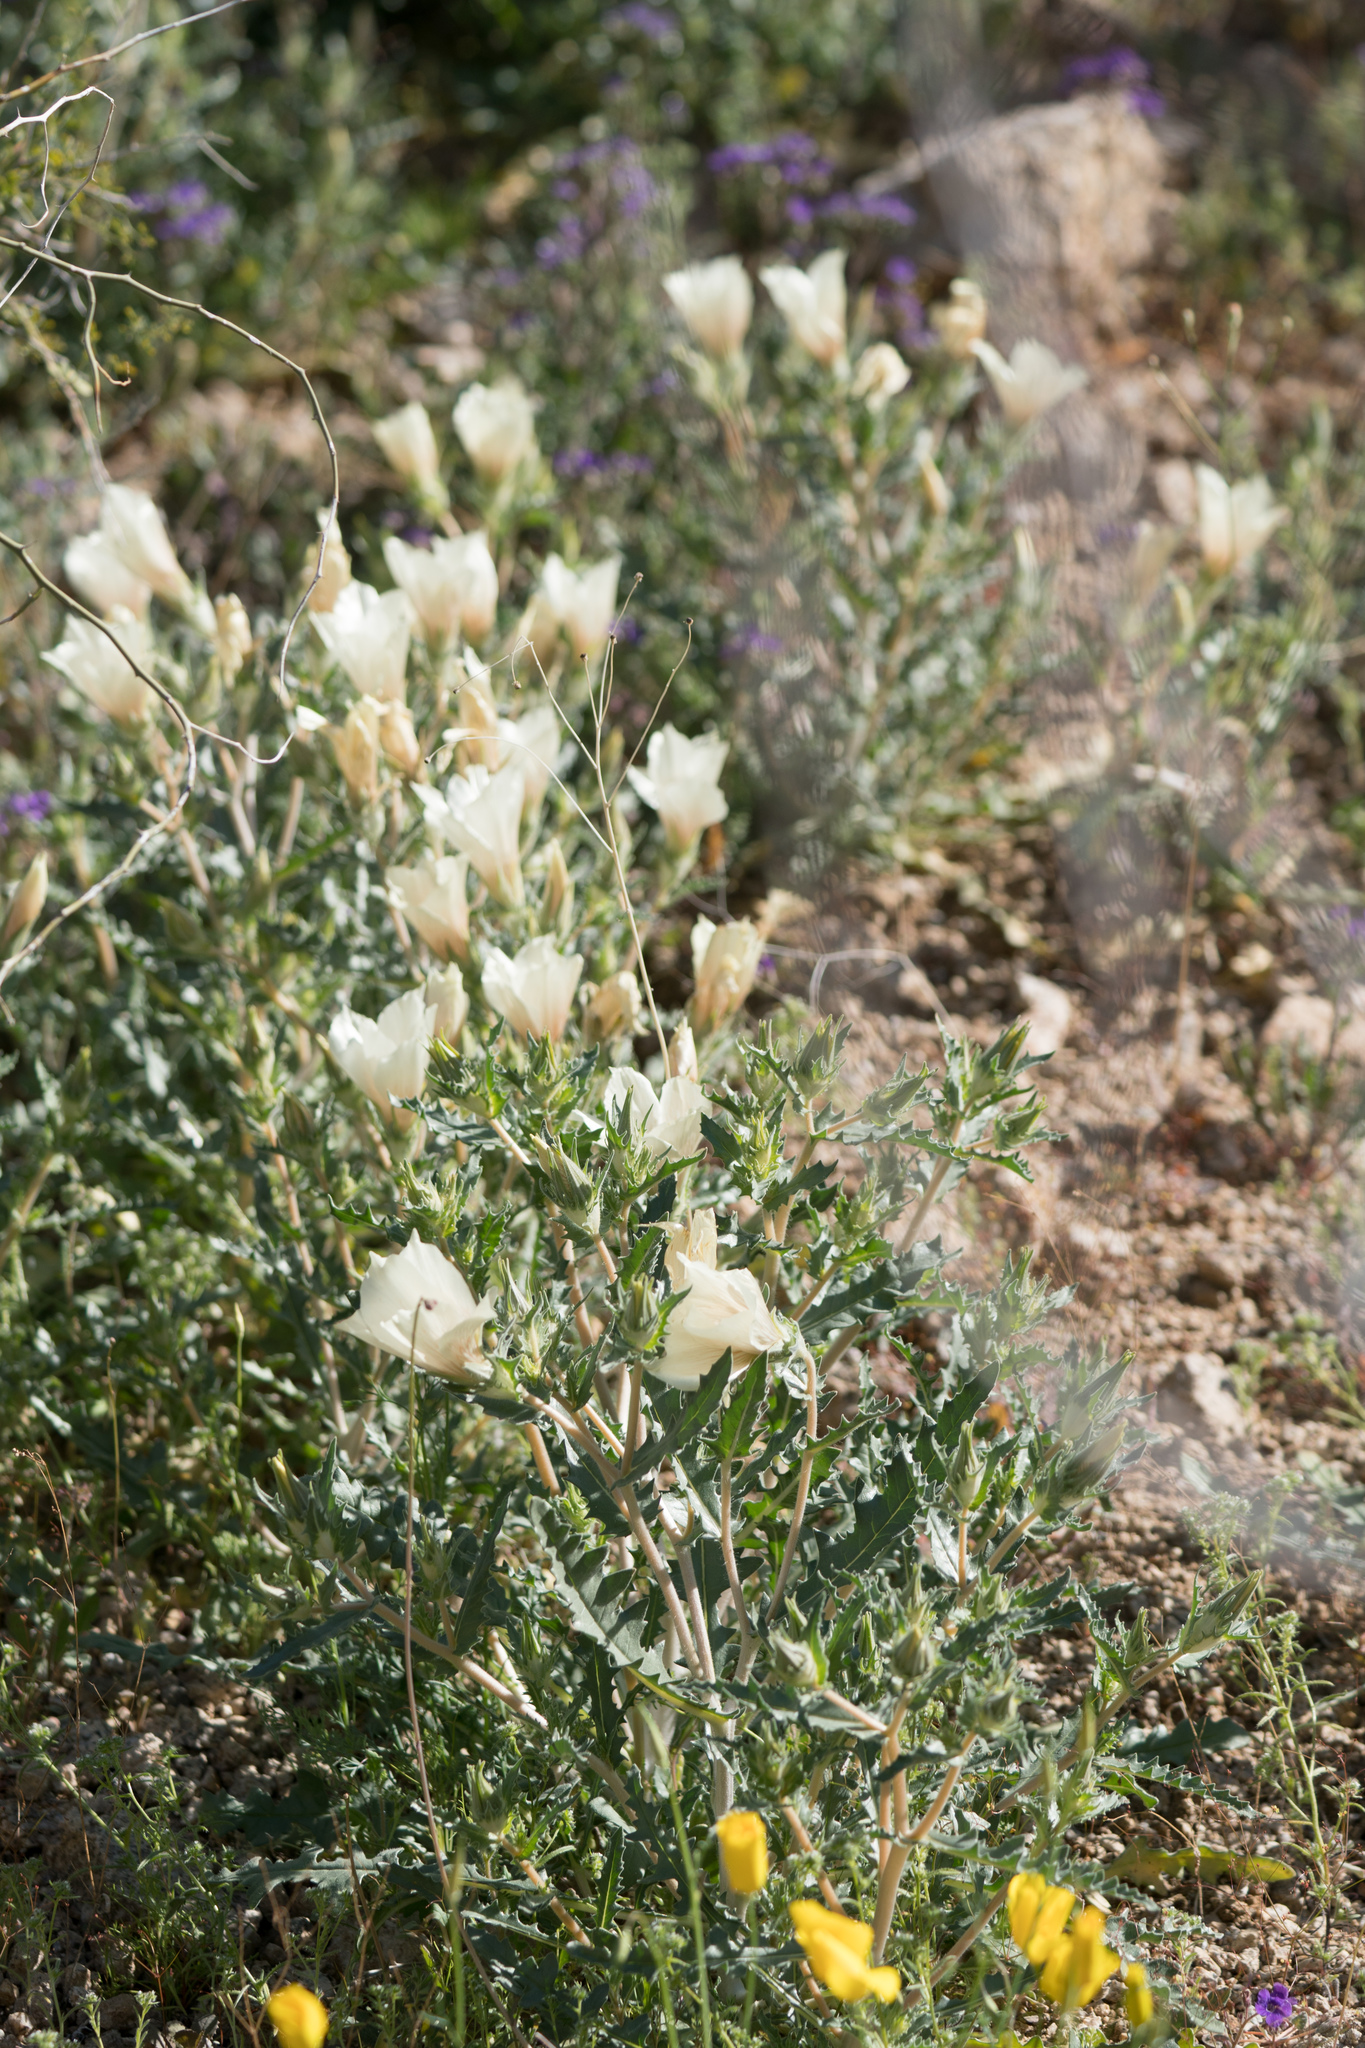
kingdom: Plantae
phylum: Tracheophyta
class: Magnoliopsida
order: Cornales
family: Loasaceae
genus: Mentzelia
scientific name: Mentzelia involucrata
